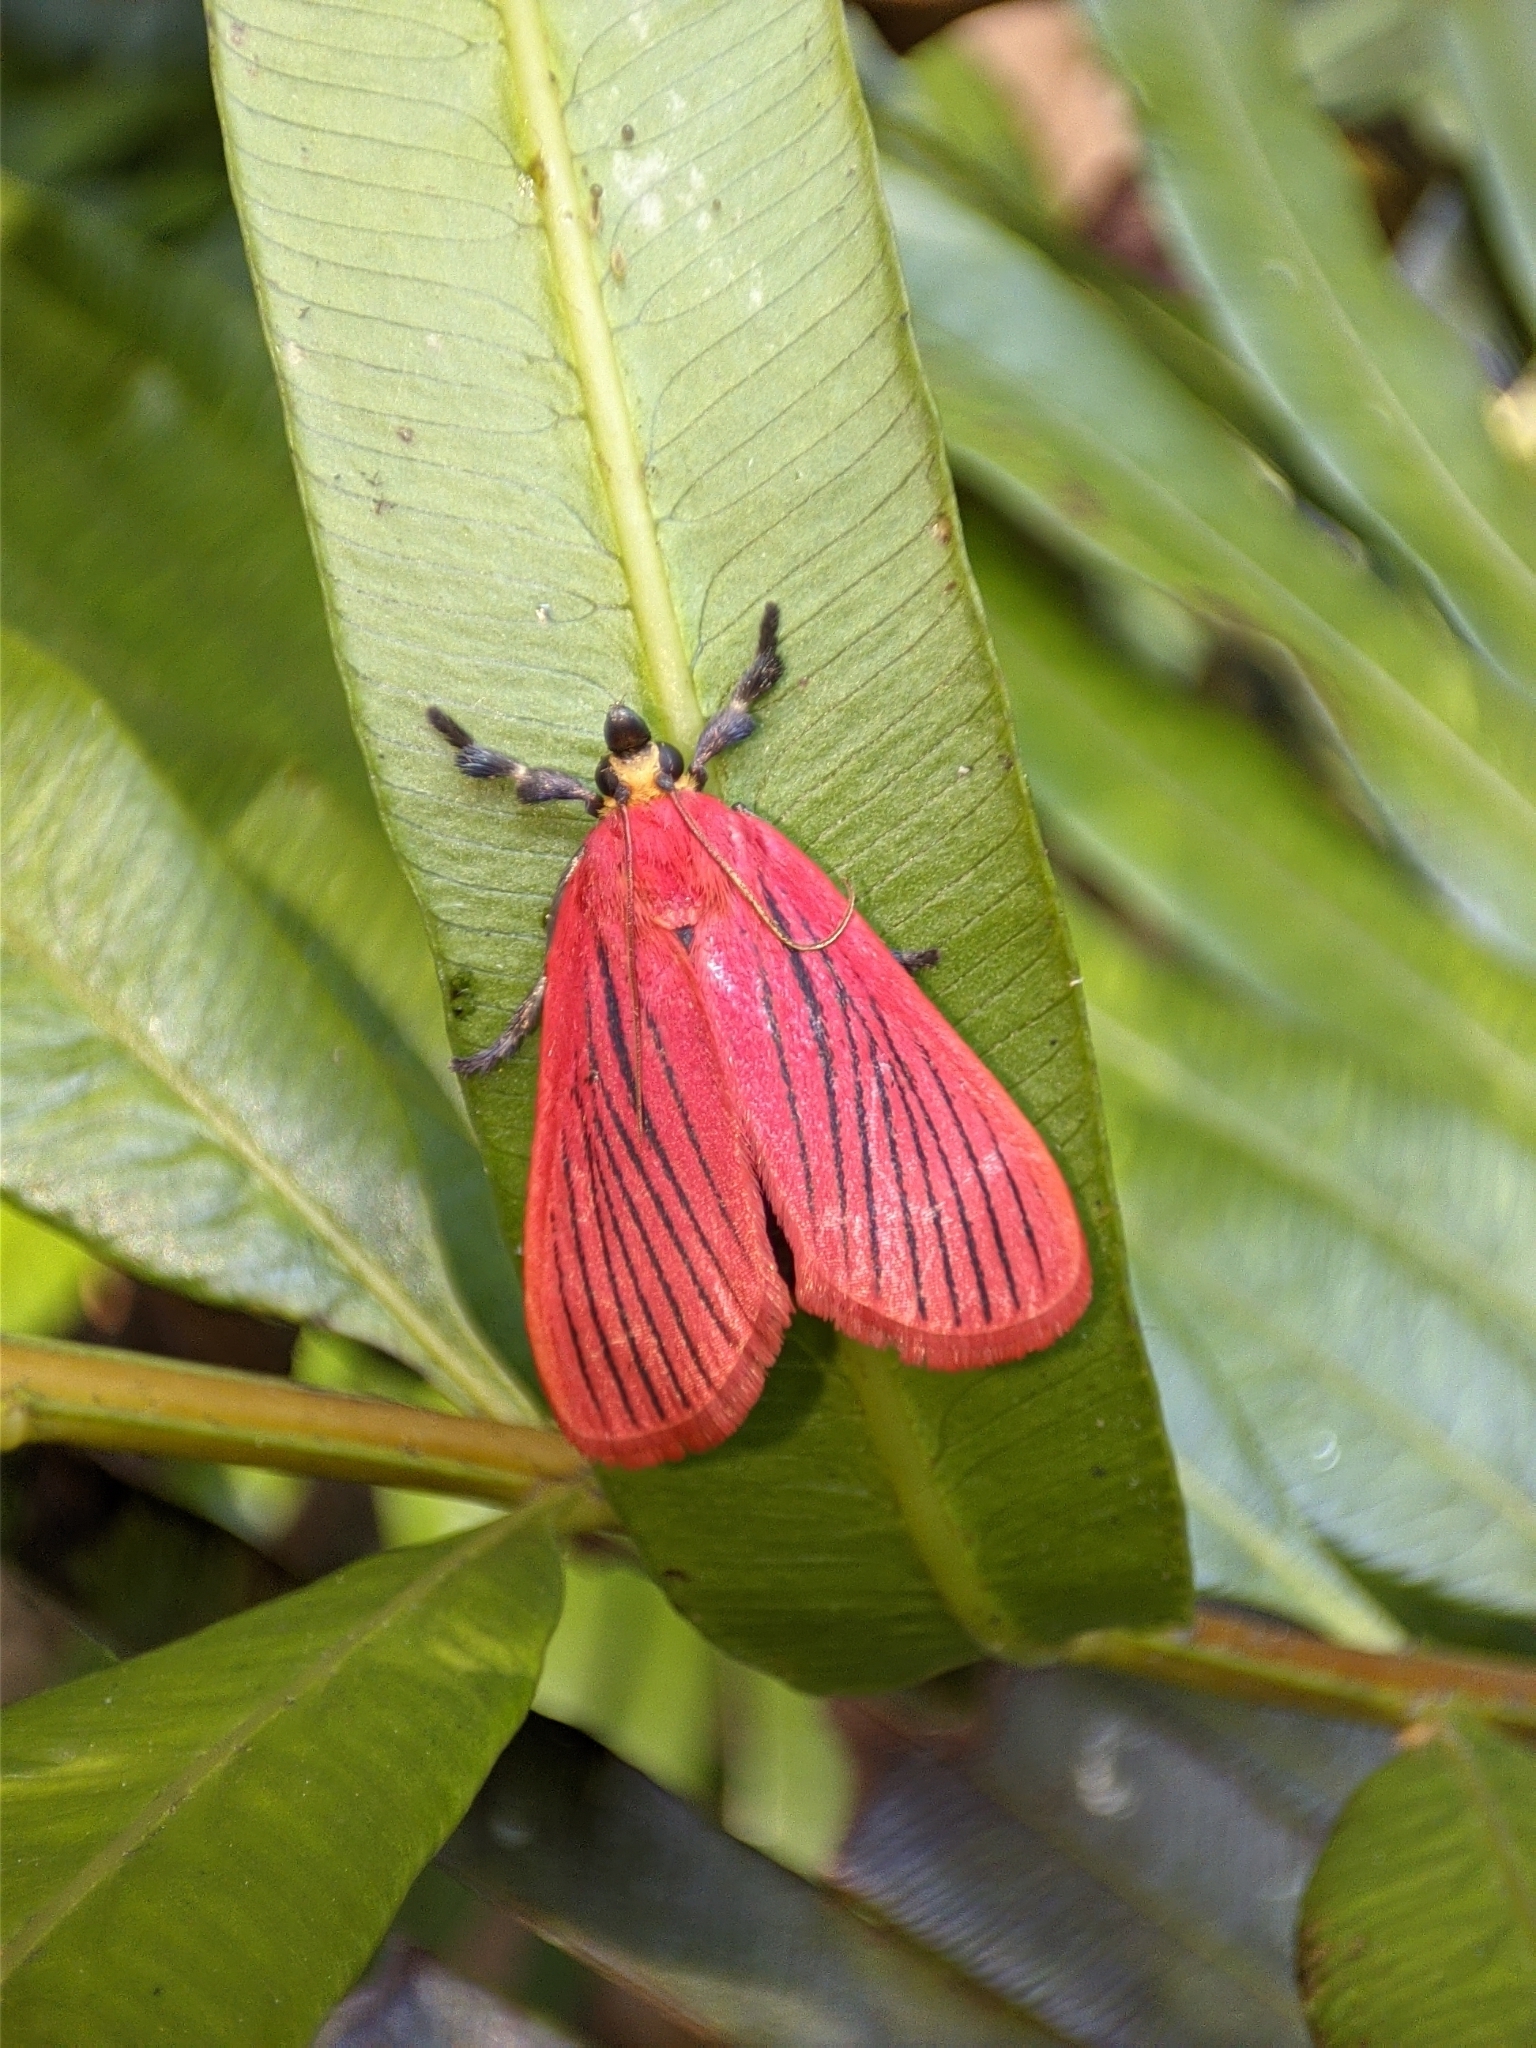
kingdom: Animalia
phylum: Arthropoda
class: Insecta
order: Lepidoptera
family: Pyralidae
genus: Arctioblepsis
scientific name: Arctioblepsis rubida
